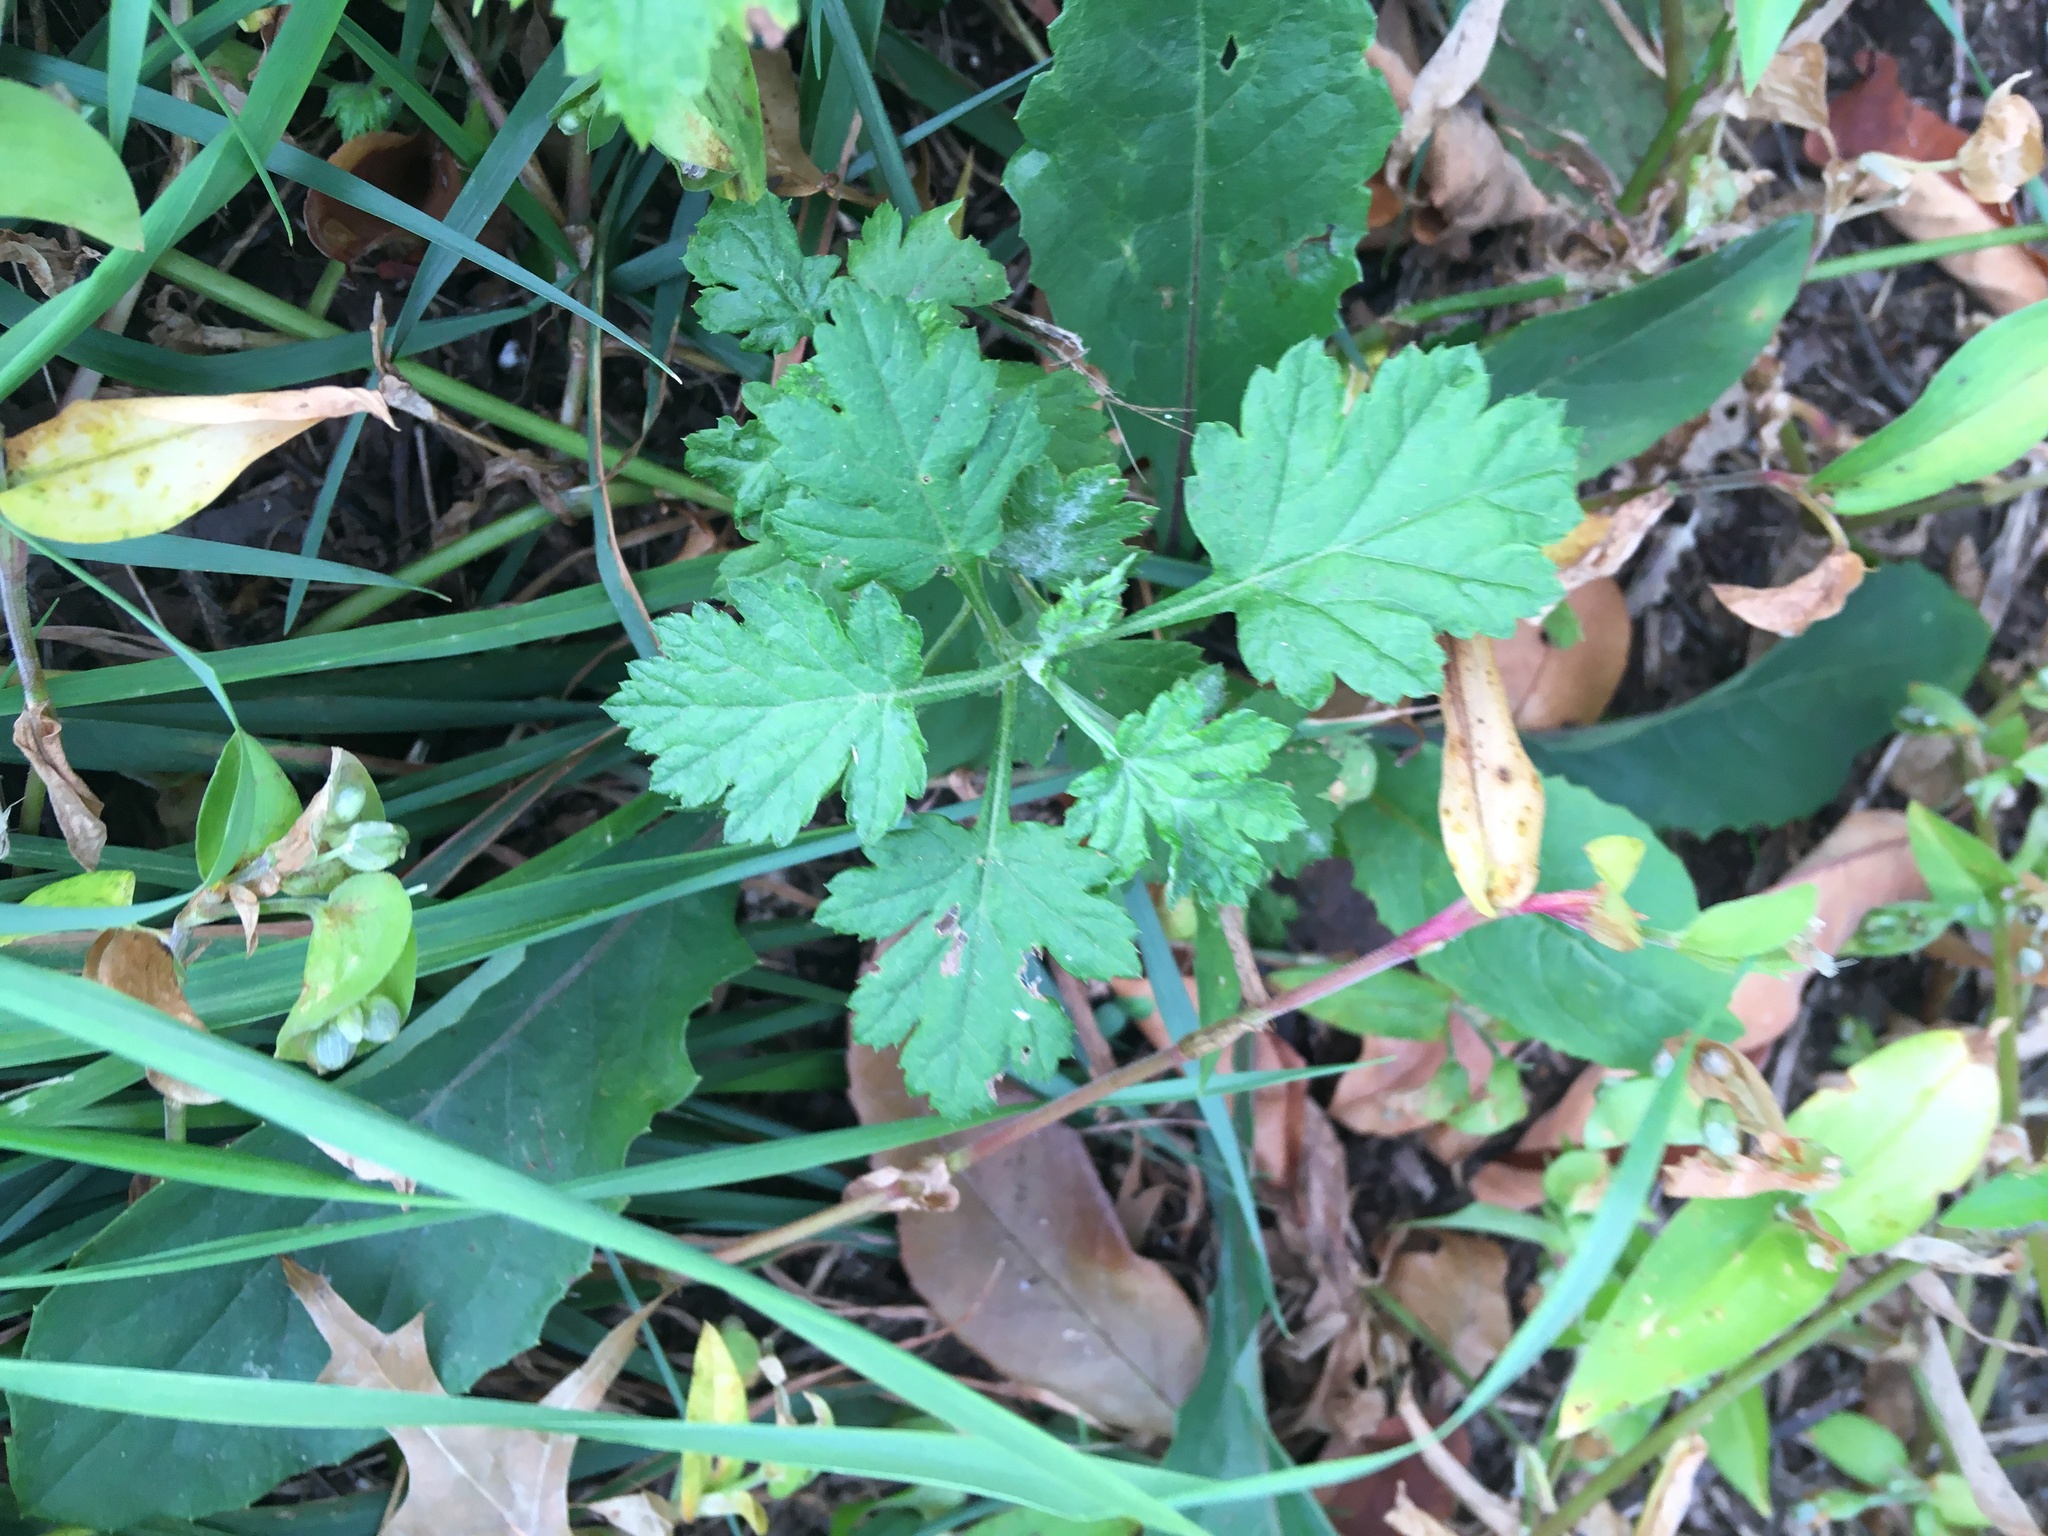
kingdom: Plantae
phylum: Tracheophyta
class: Magnoliopsida
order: Asterales
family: Asteraceae
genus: Artemisia
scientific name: Artemisia vulgaris
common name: Mugwort
